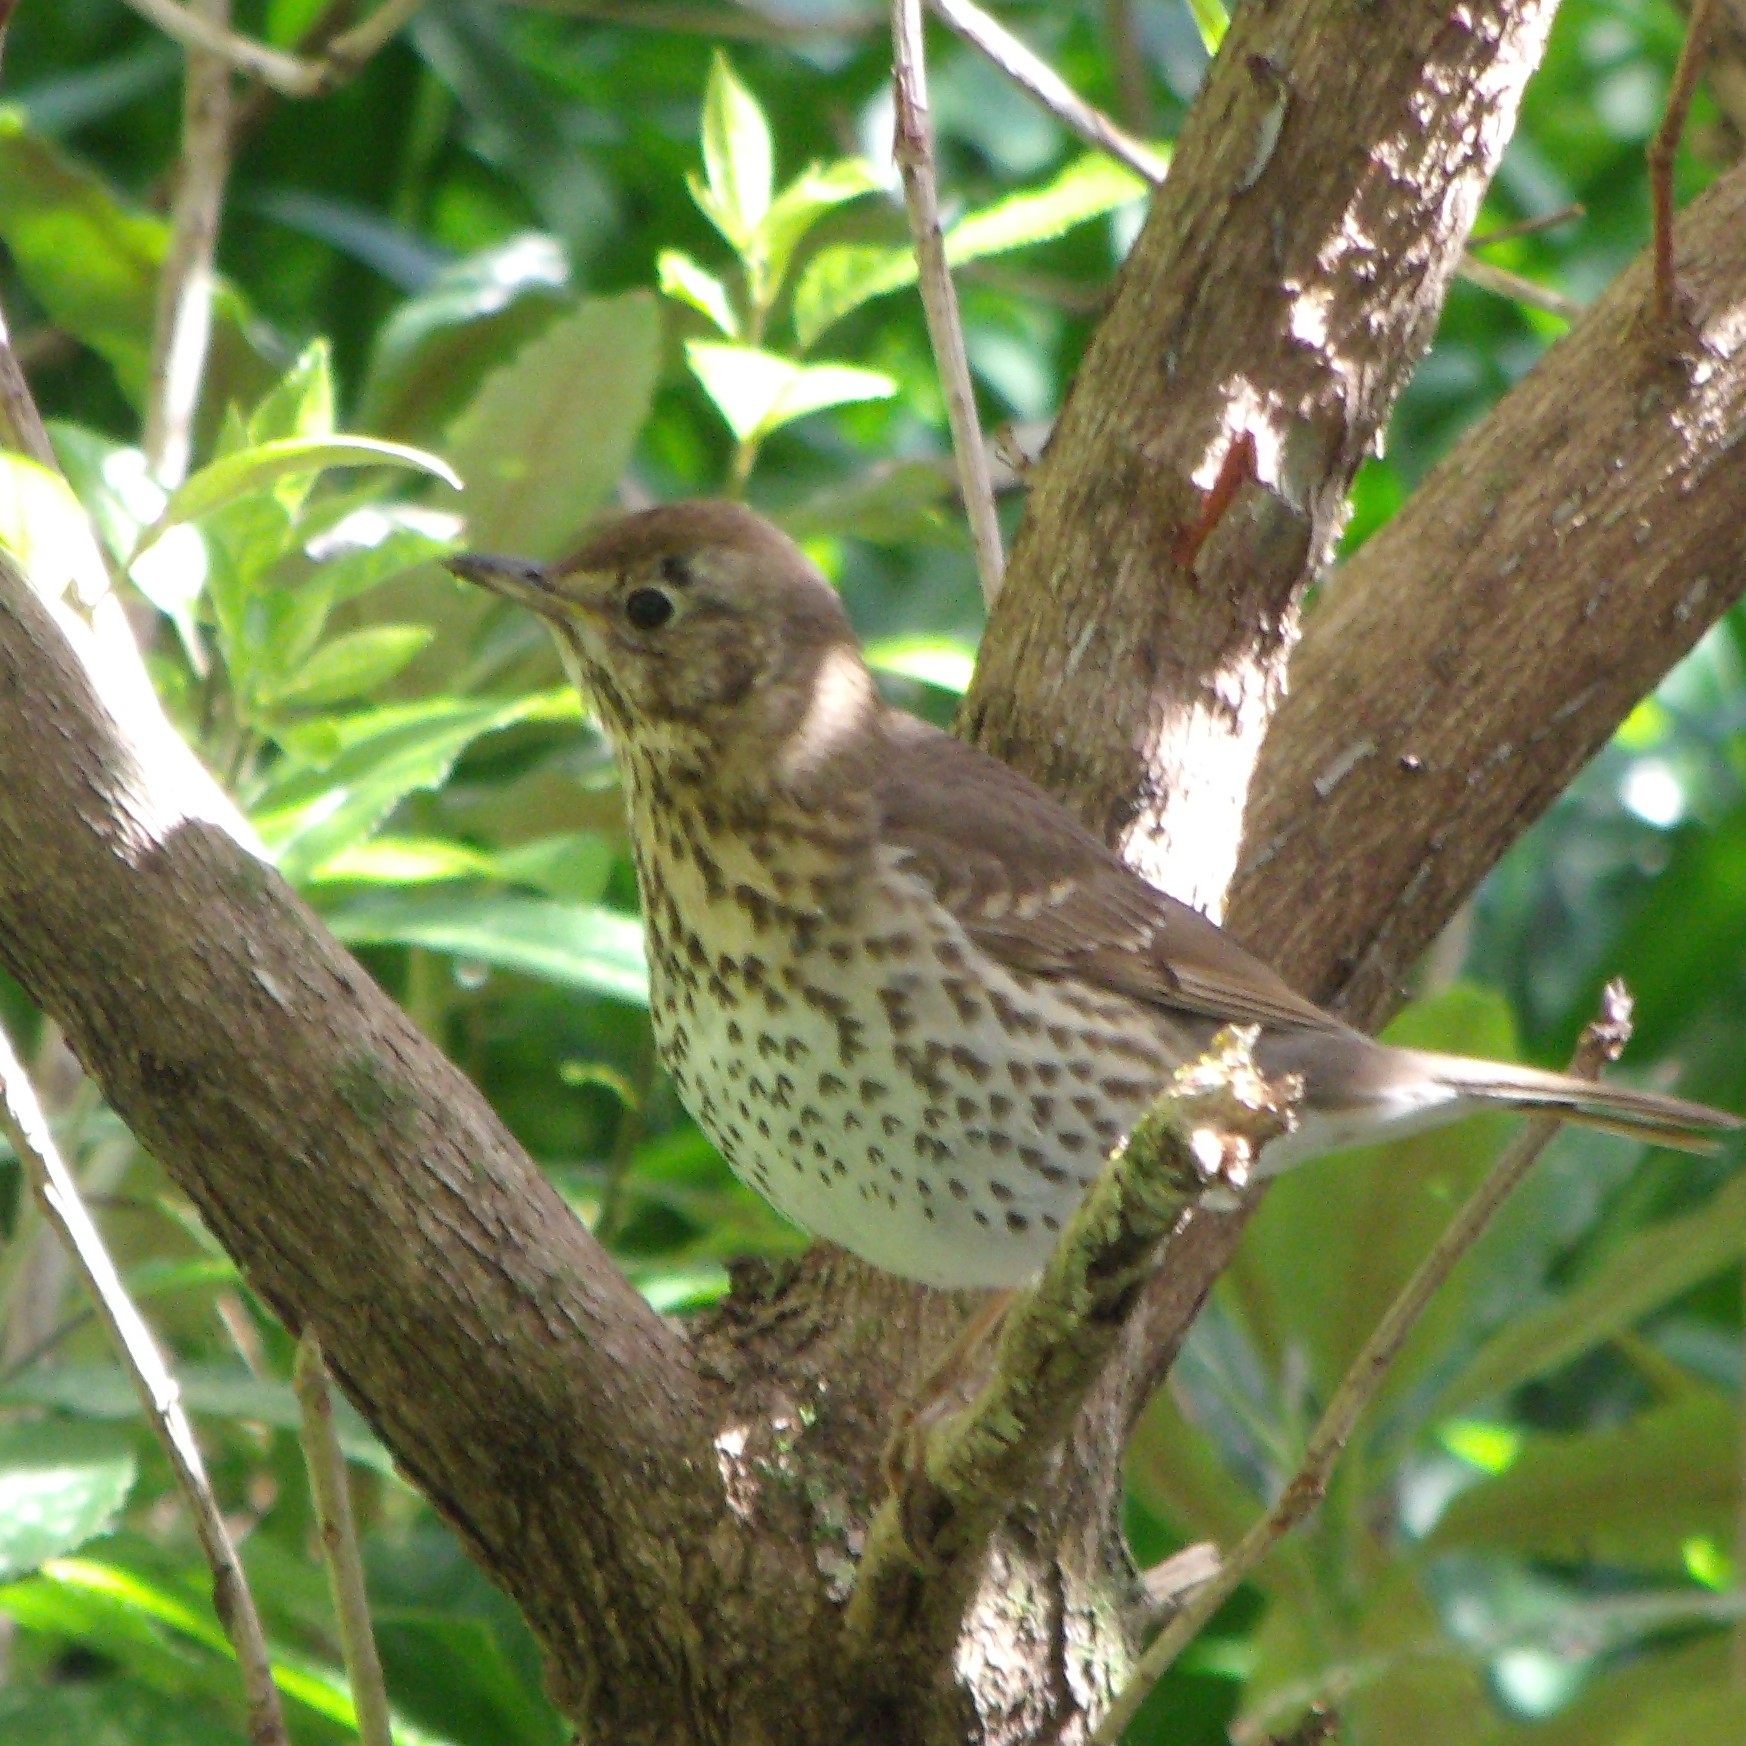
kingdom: Animalia
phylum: Chordata
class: Aves
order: Passeriformes
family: Turdidae
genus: Turdus
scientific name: Turdus philomelos
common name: Song thrush
